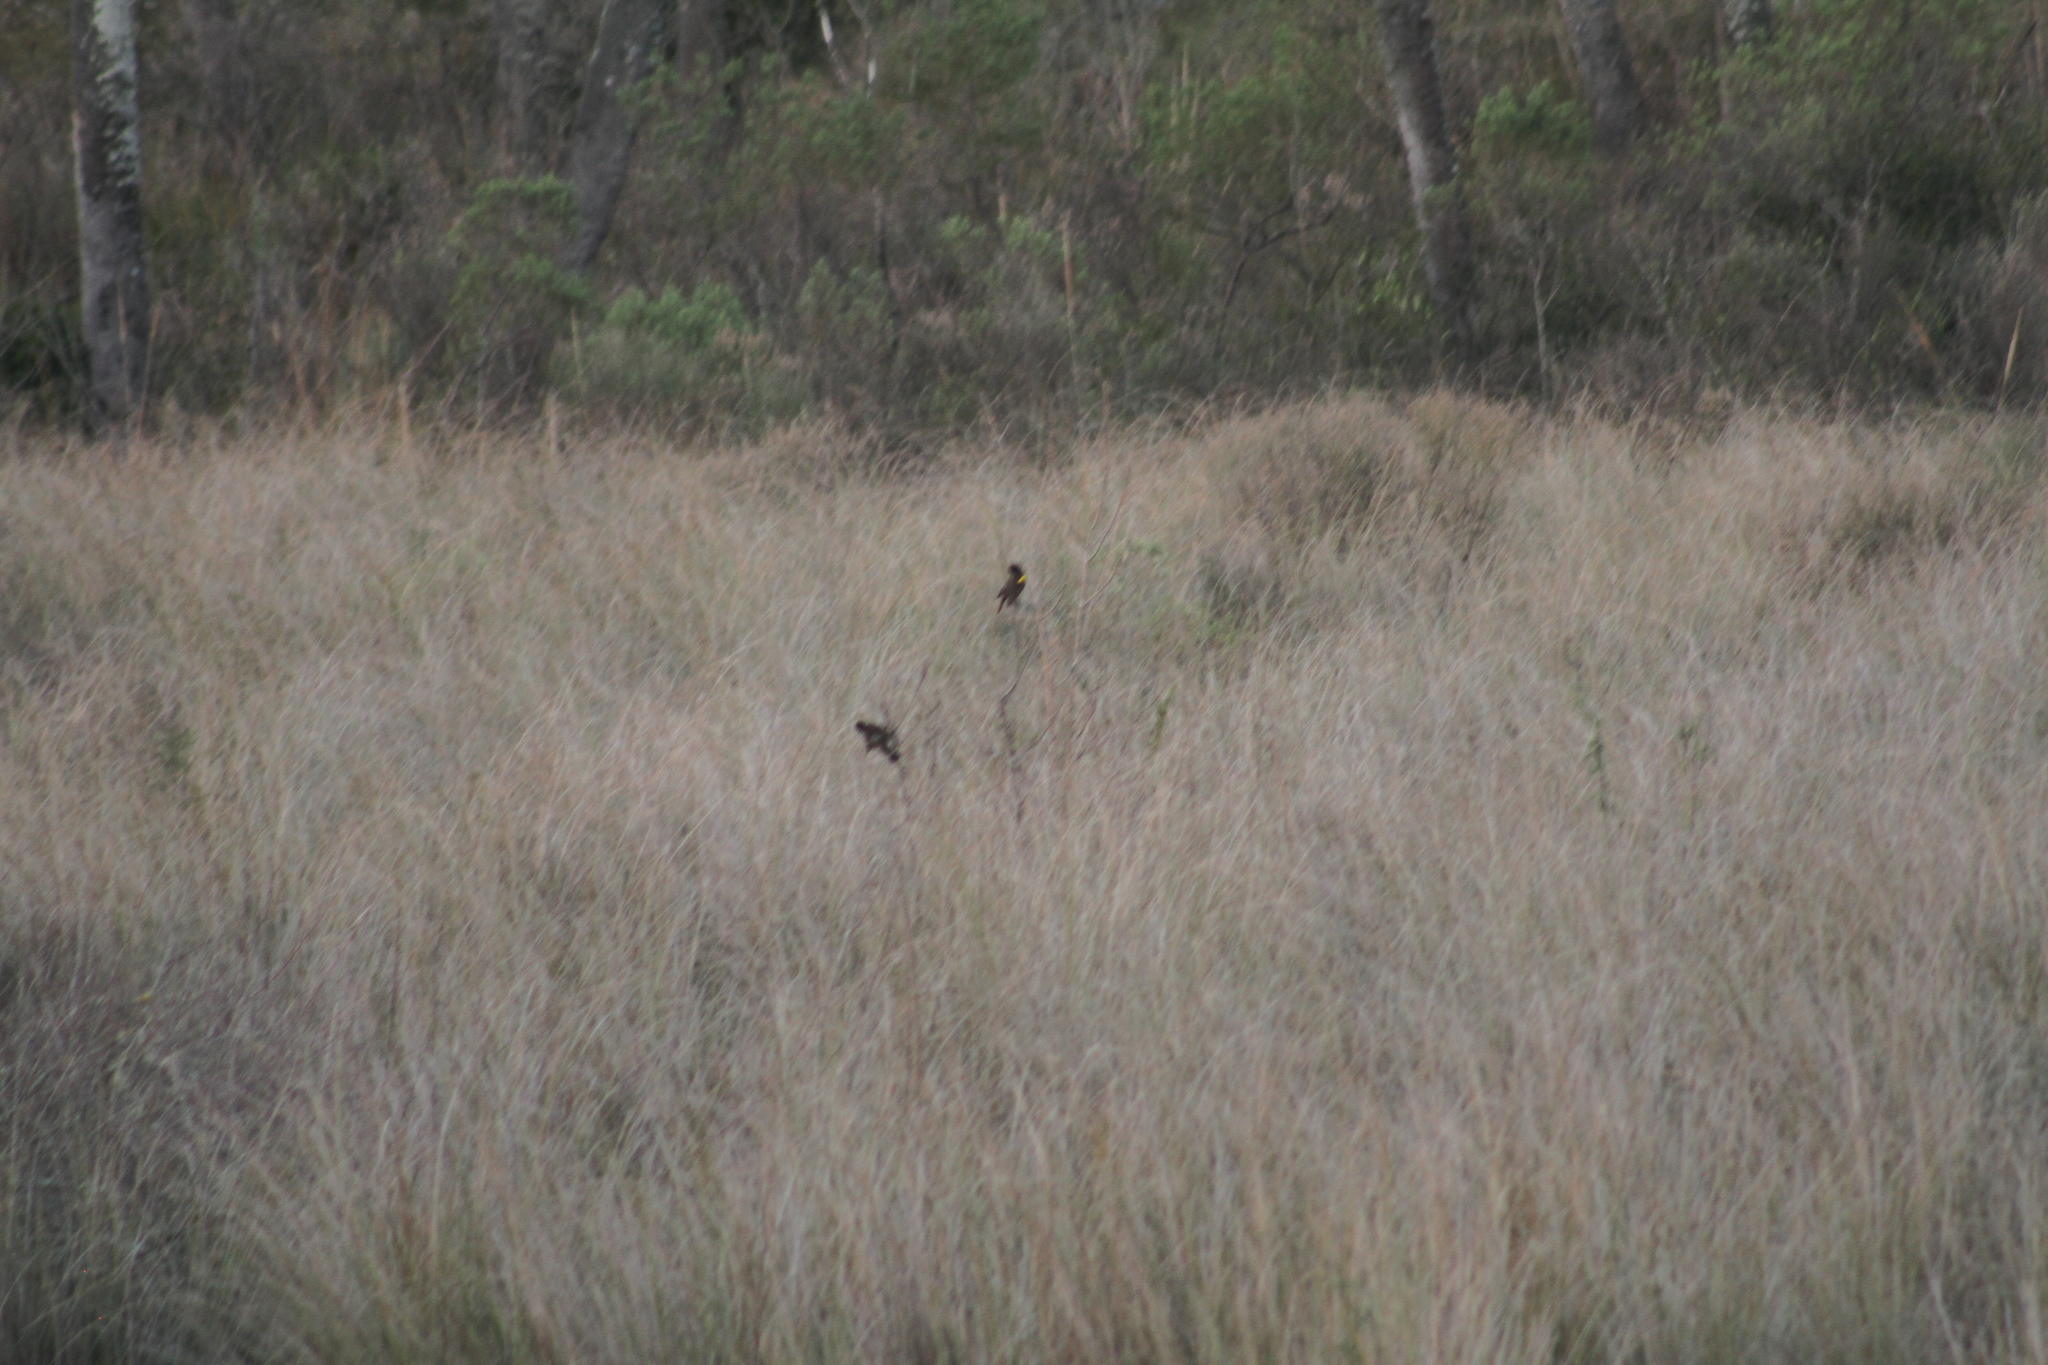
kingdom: Animalia
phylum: Chordata
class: Aves
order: Passeriformes
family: Icteridae
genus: Agelasticus
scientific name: Agelasticus thilius
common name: Yellow-winged blackbird
